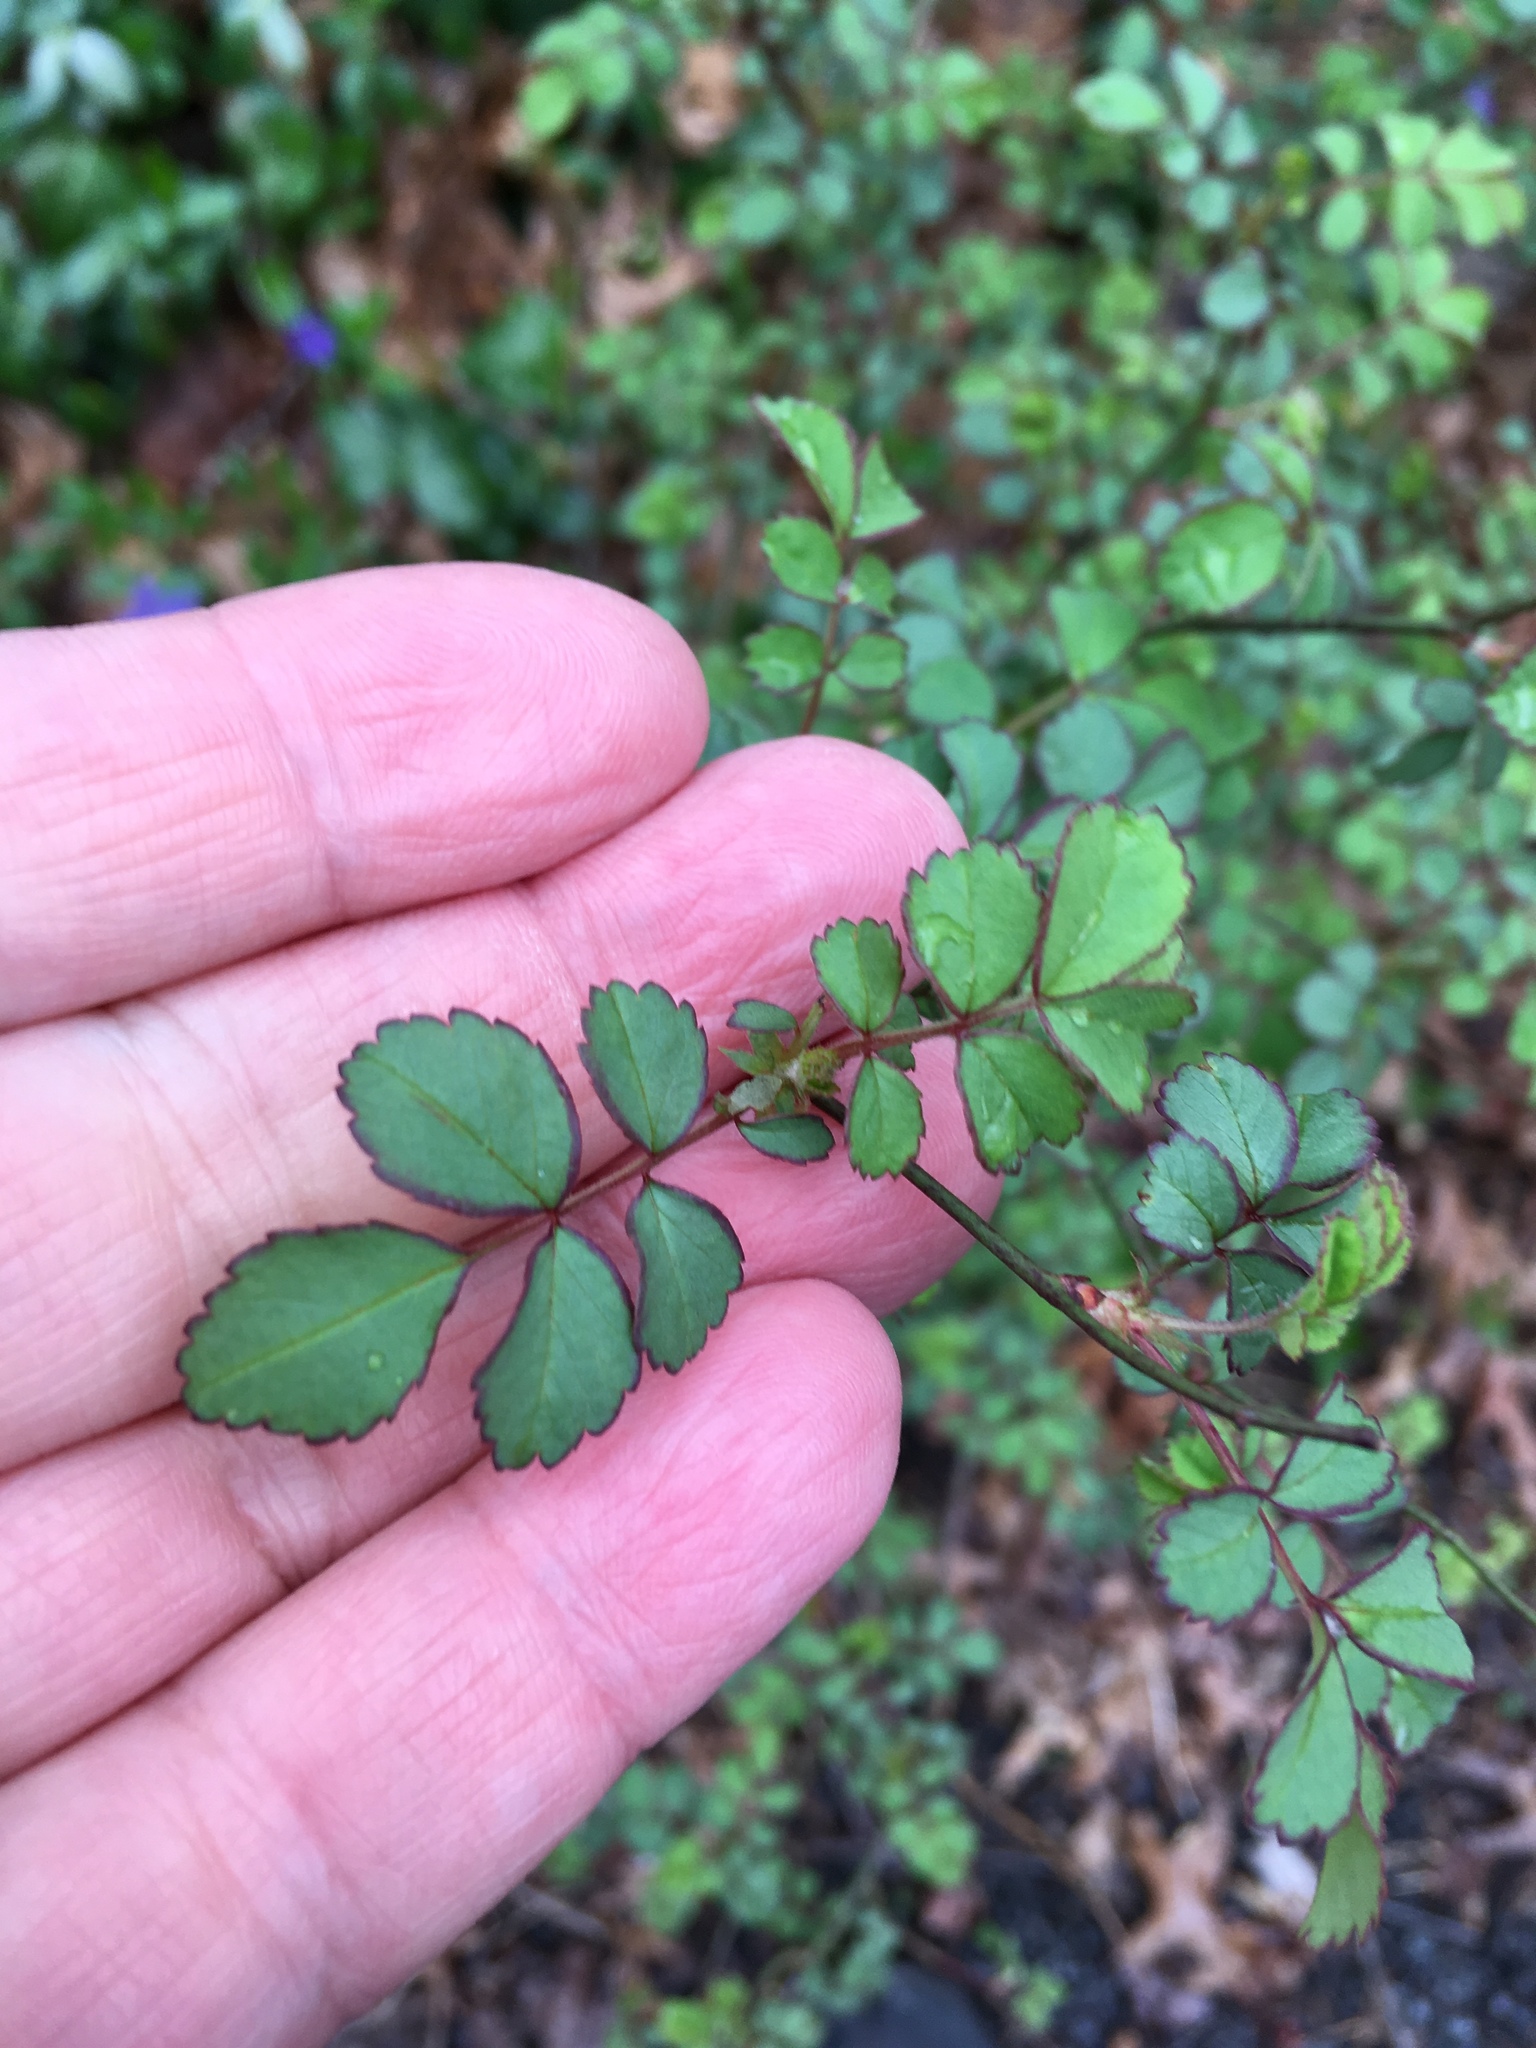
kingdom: Plantae
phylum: Tracheophyta
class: Magnoliopsida
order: Rosales
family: Rosaceae
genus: Rosa
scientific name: Rosa multiflora
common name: Multiflora rose
